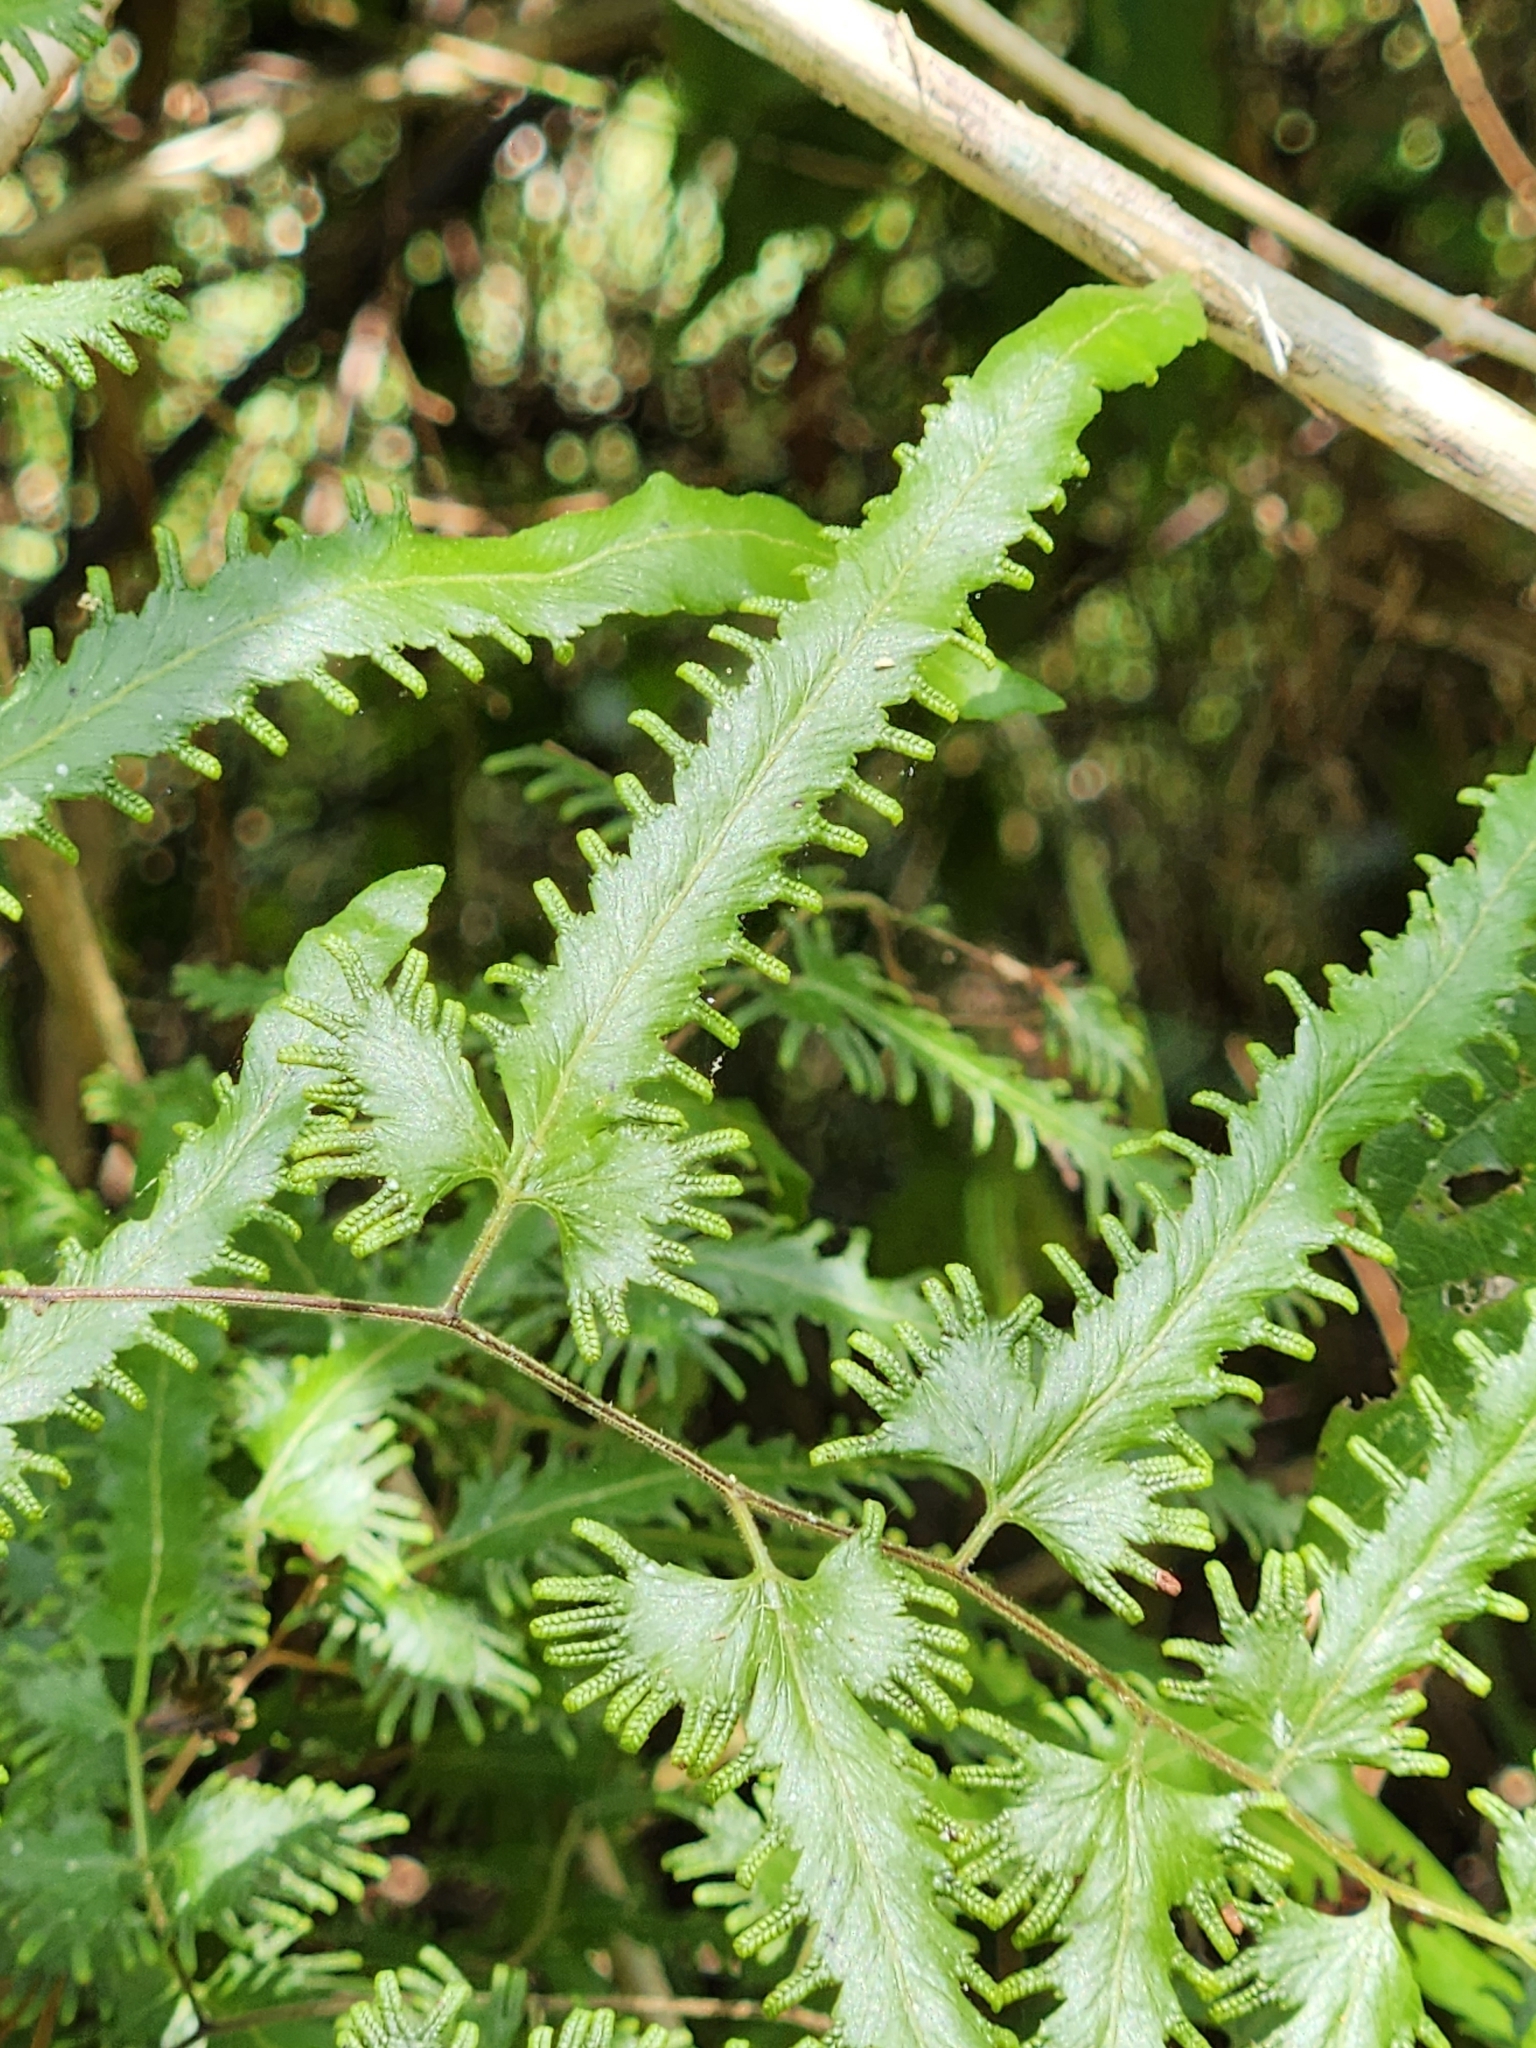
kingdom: Plantae
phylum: Tracheophyta
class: Polypodiopsida
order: Schizaeales
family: Lygodiaceae
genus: Lygodium
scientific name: Lygodium venustum
